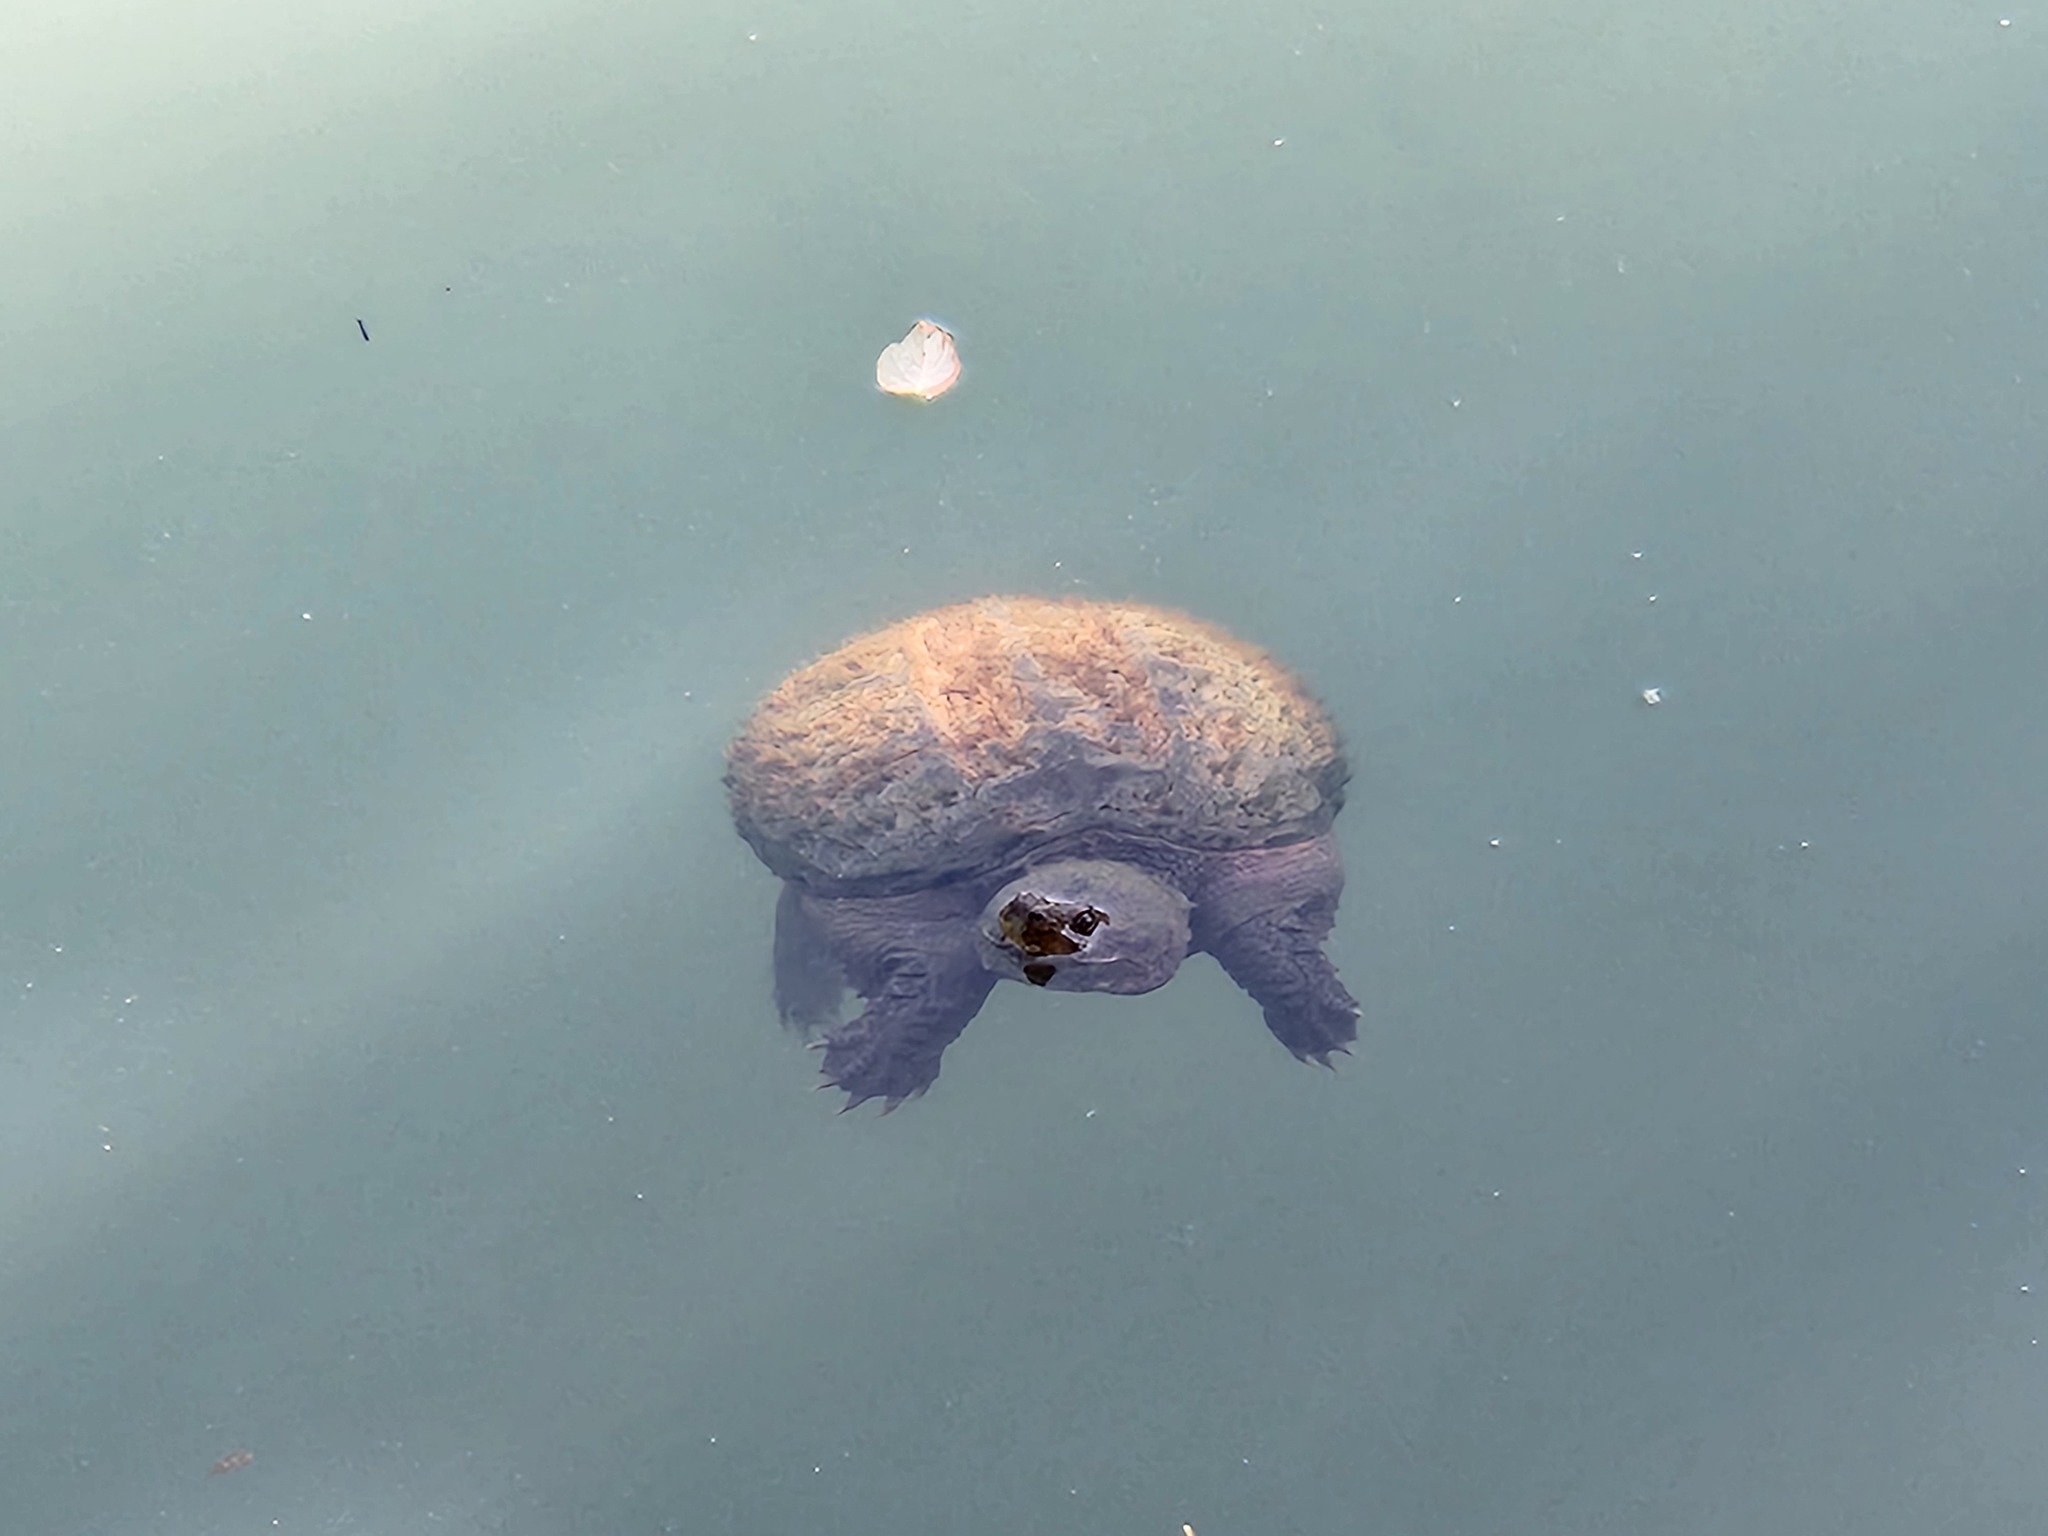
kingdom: Animalia
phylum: Chordata
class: Testudines
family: Chelydridae
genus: Chelydra
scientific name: Chelydra serpentina
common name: Common snapping turtle
